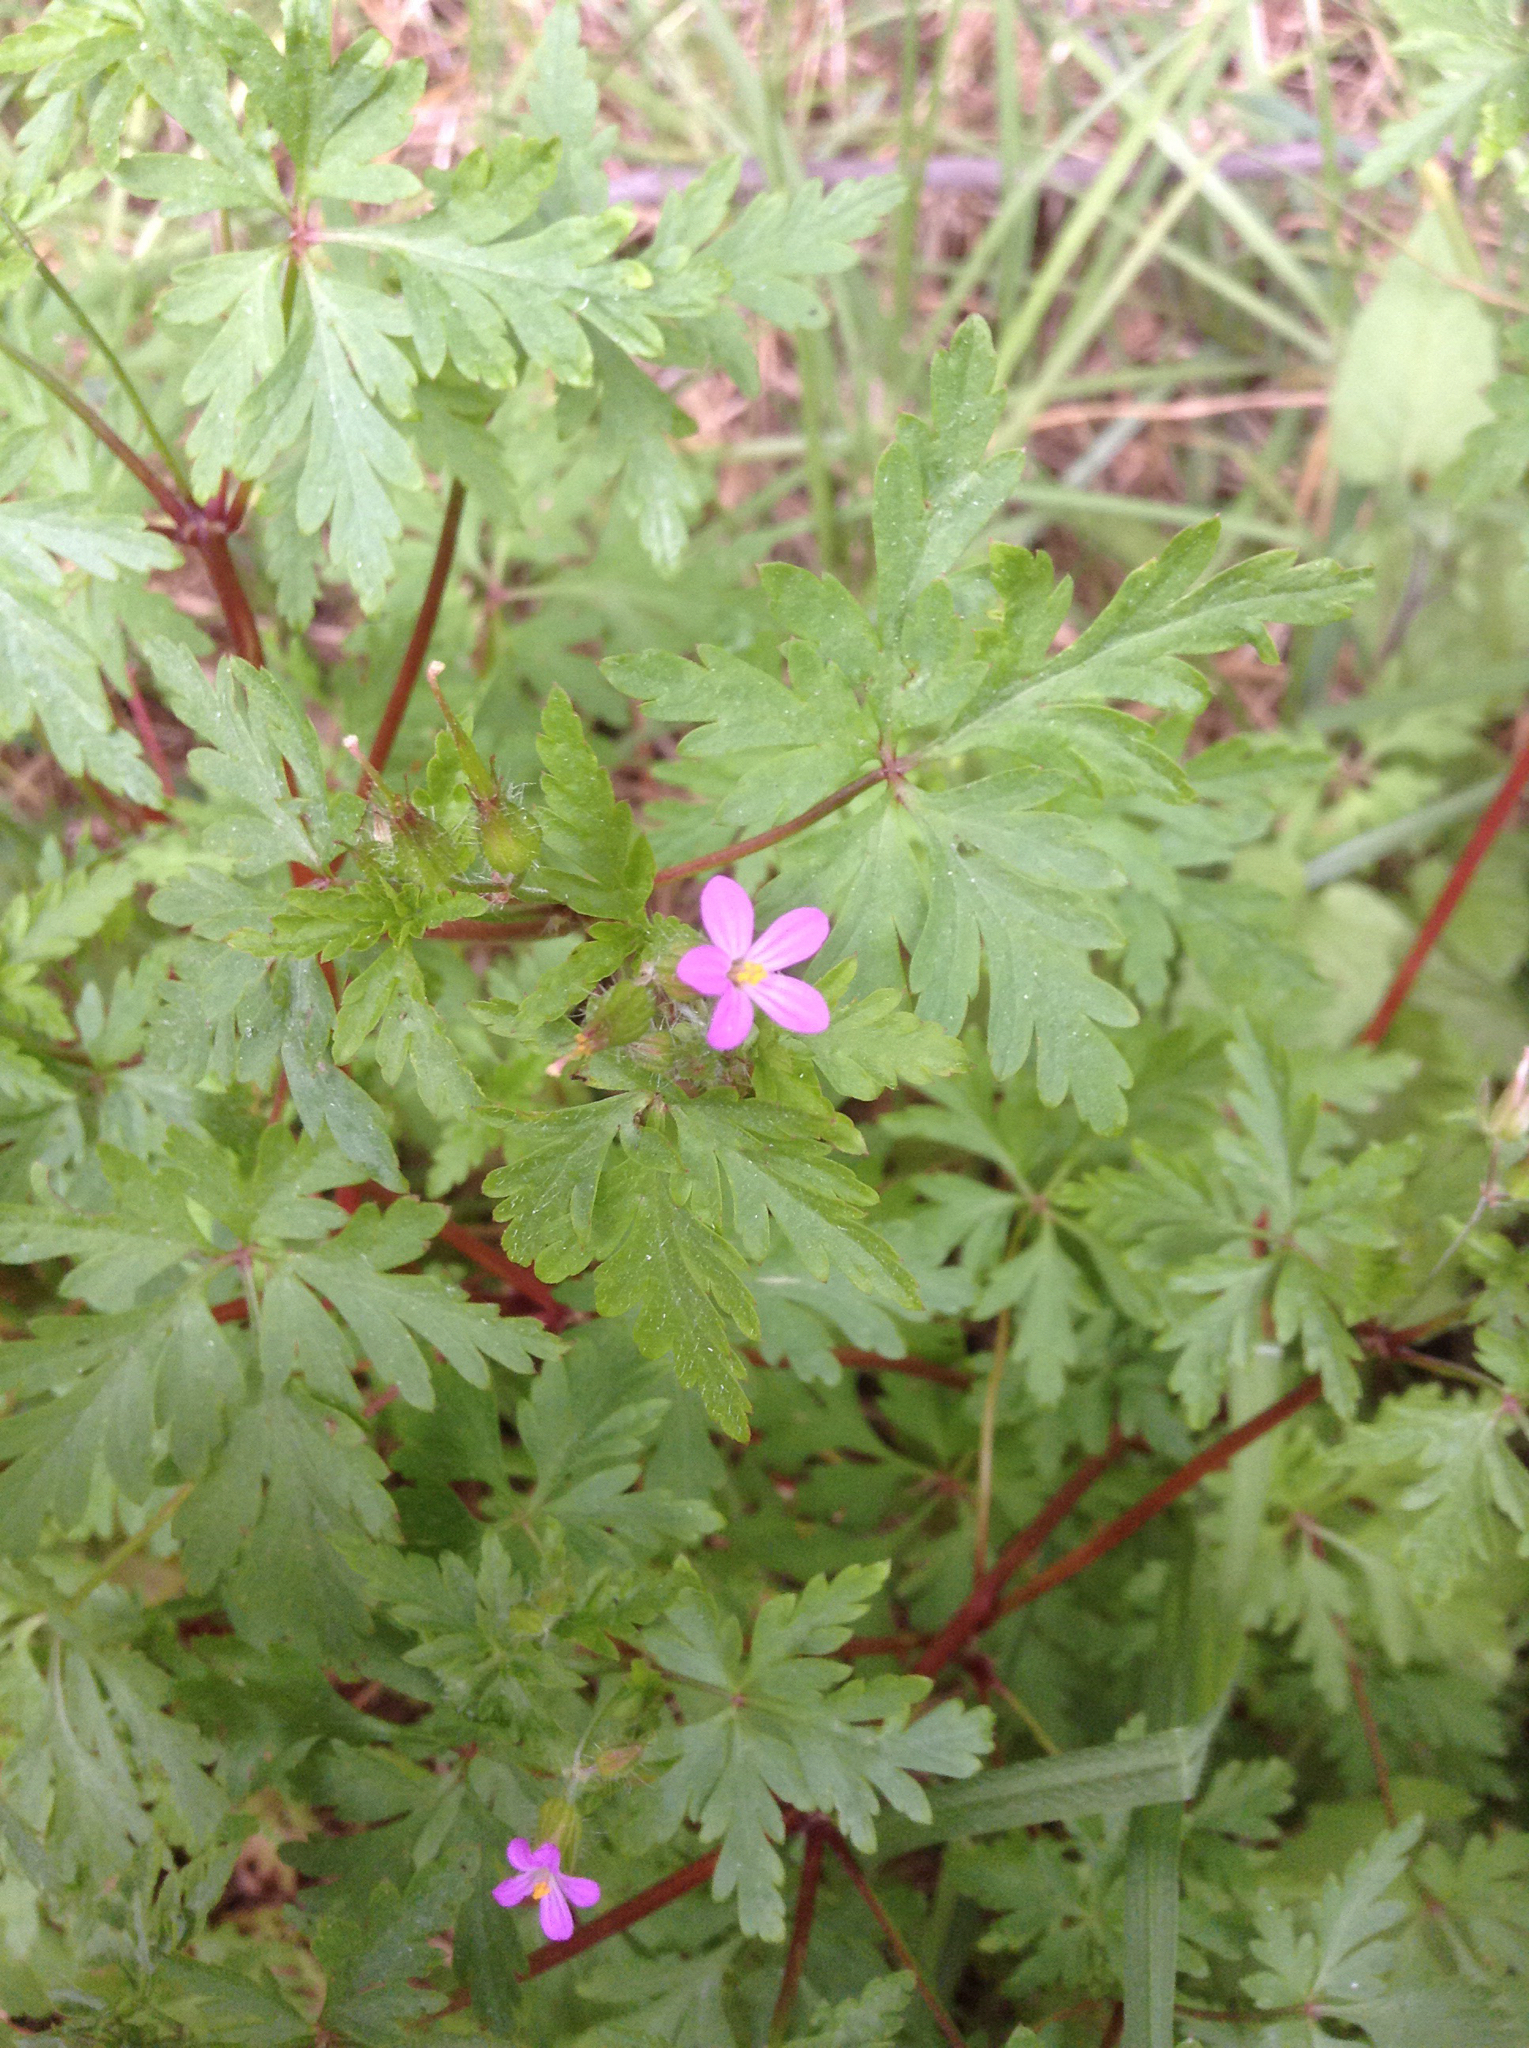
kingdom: Plantae
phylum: Tracheophyta
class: Magnoliopsida
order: Geraniales
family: Geraniaceae
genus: Geranium
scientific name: Geranium purpureum
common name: Little-robin
